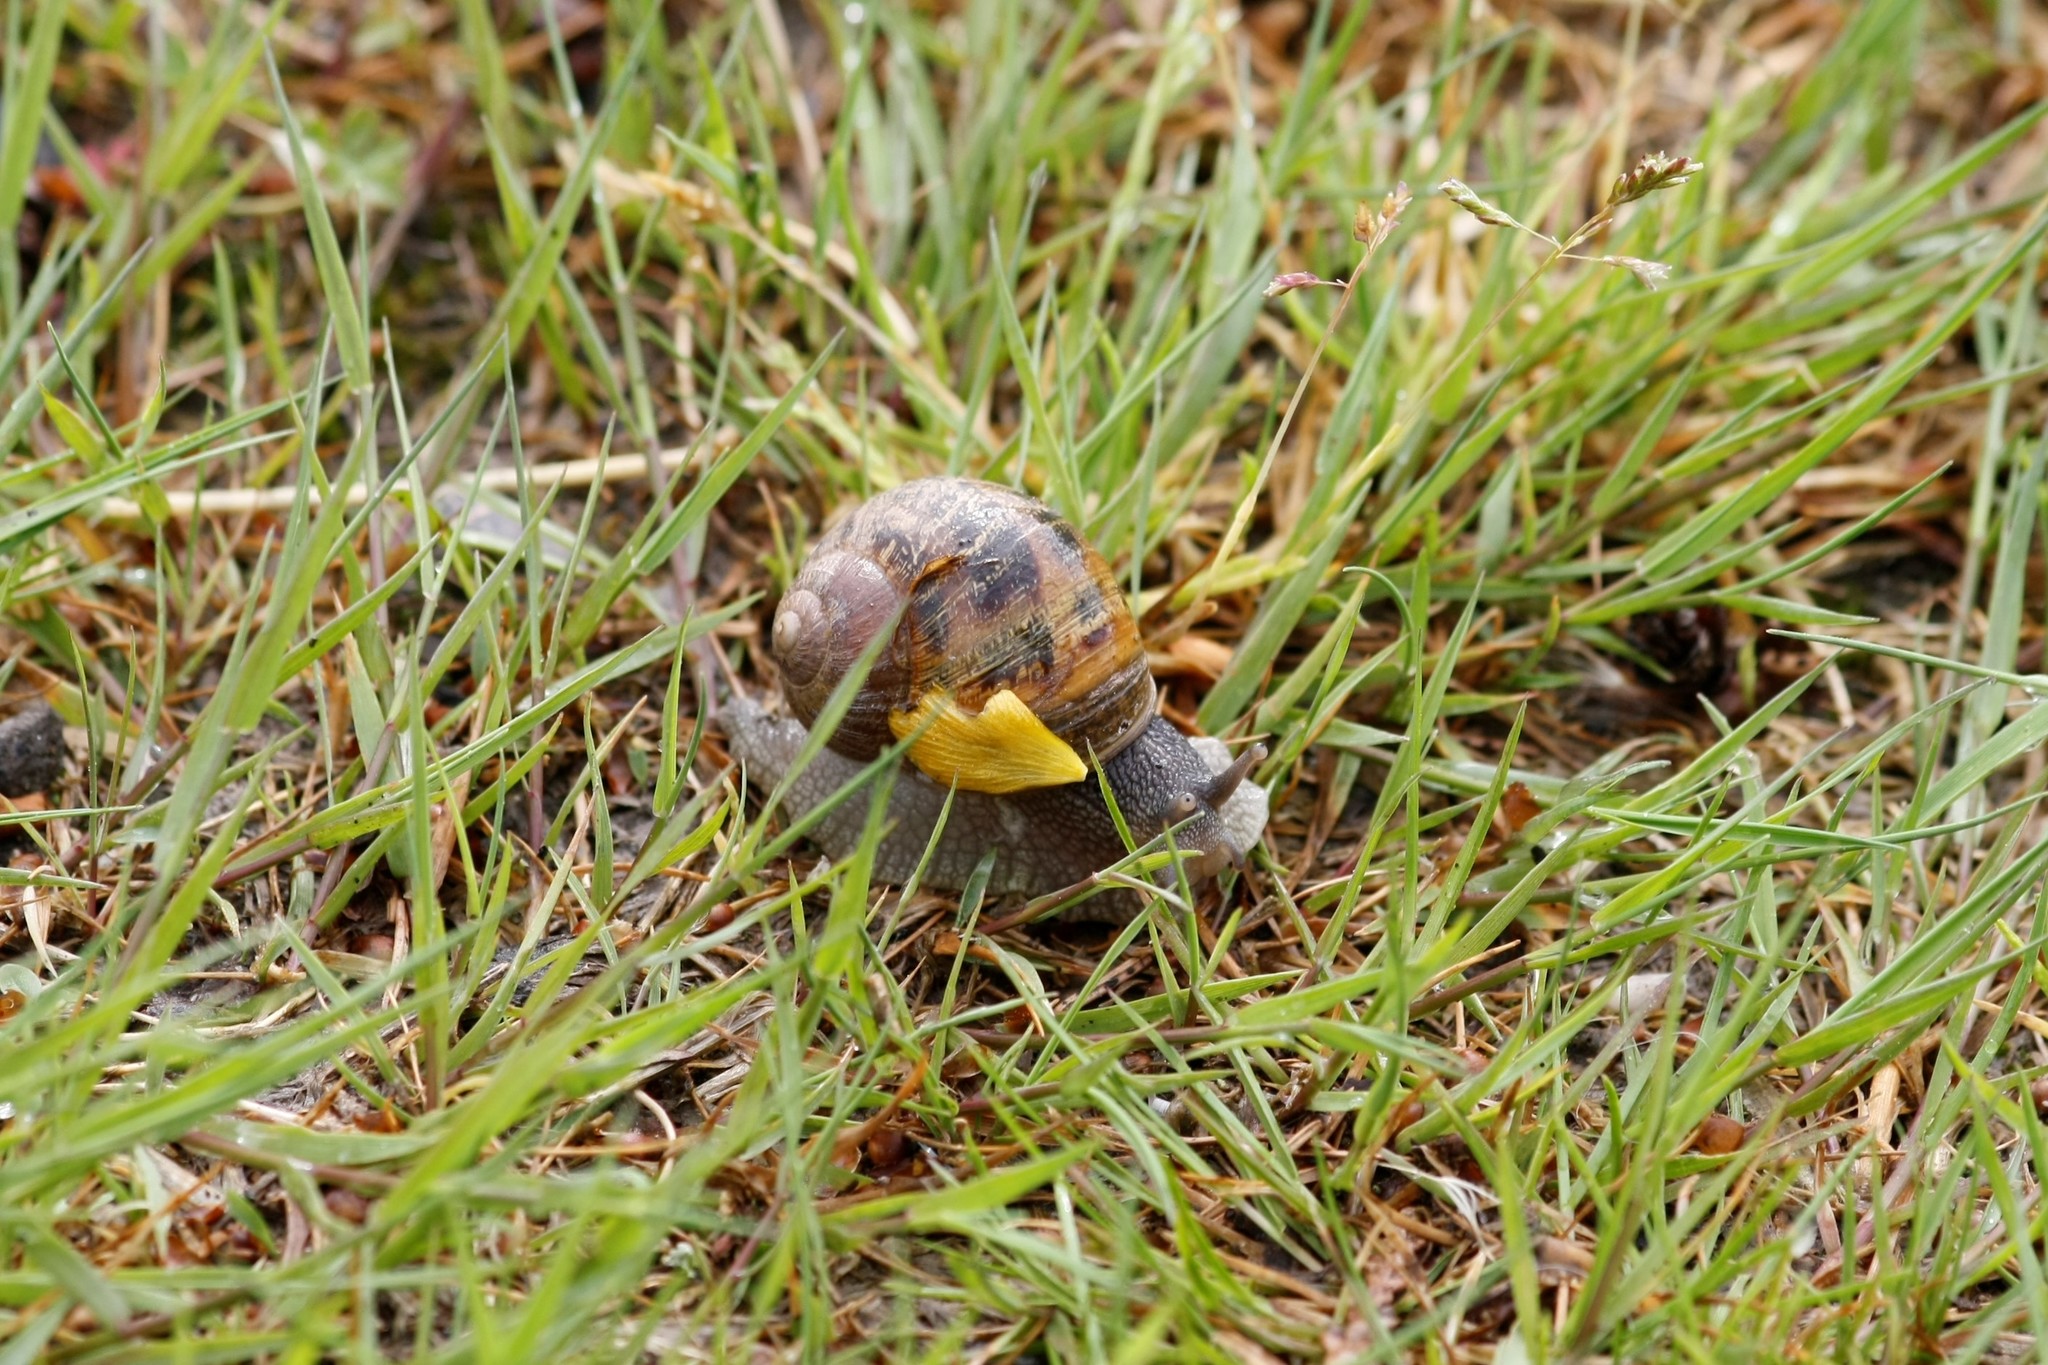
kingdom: Animalia
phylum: Mollusca
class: Gastropoda
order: Stylommatophora
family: Helicidae
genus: Cornu
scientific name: Cornu aspersum
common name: Brown garden snail
